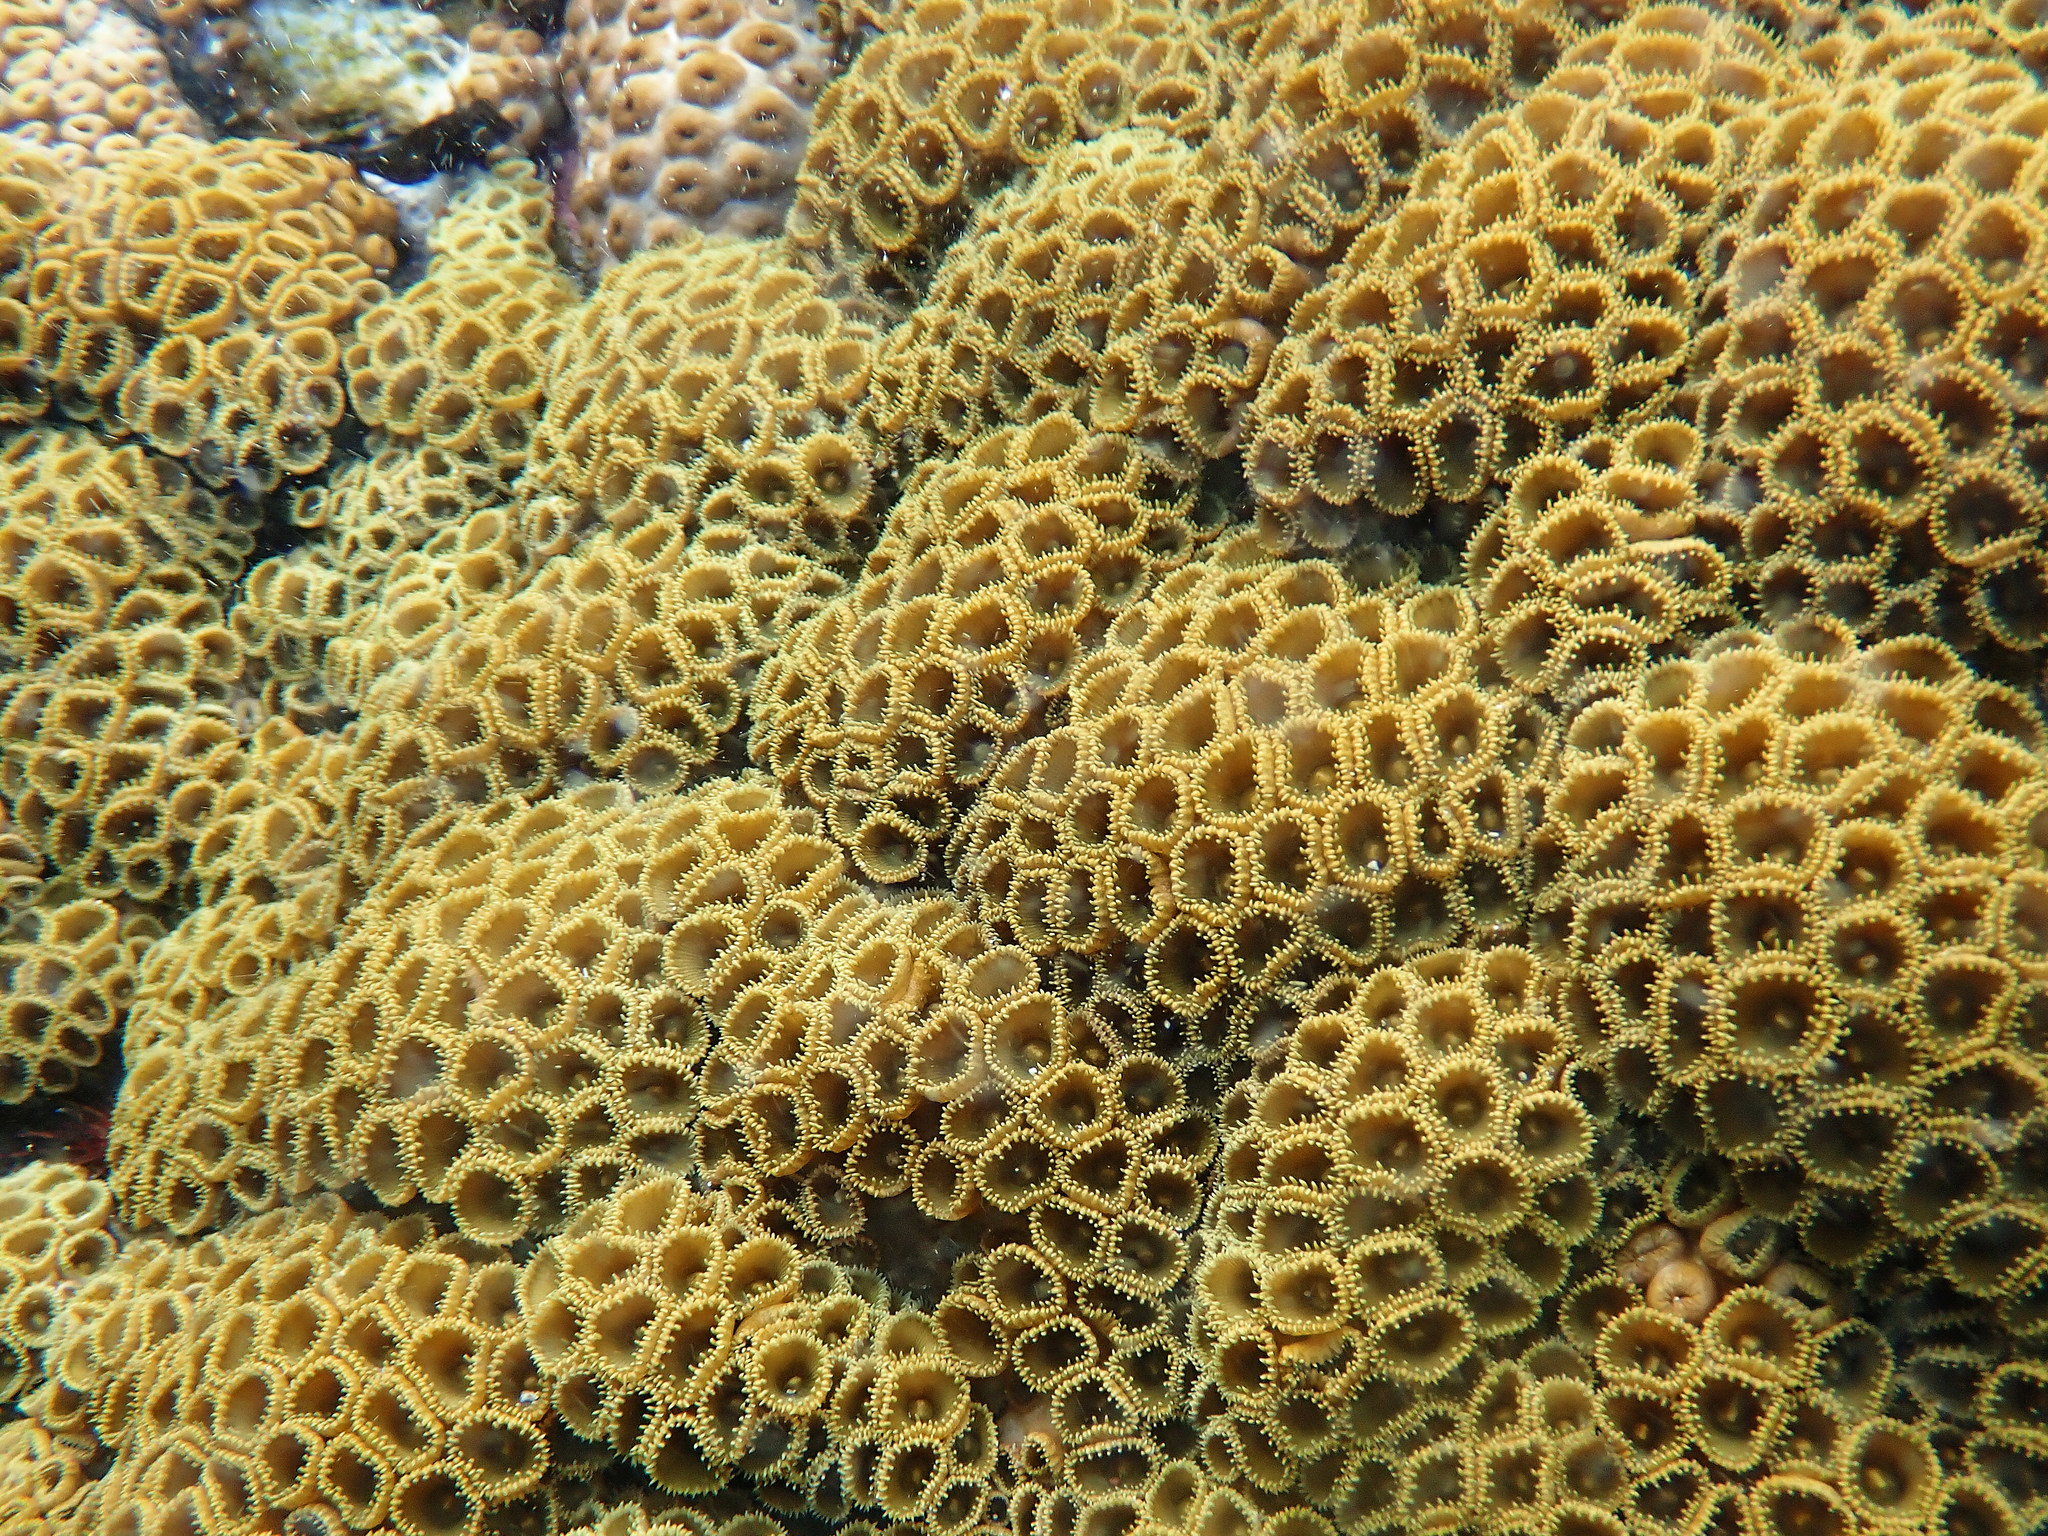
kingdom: Animalia
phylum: Cnidaria
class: Anthozoa
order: Zoantharia
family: Sphenopidae
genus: Palythoa
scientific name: Palythoa caribaeorum
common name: Encrusting colonial anemone
